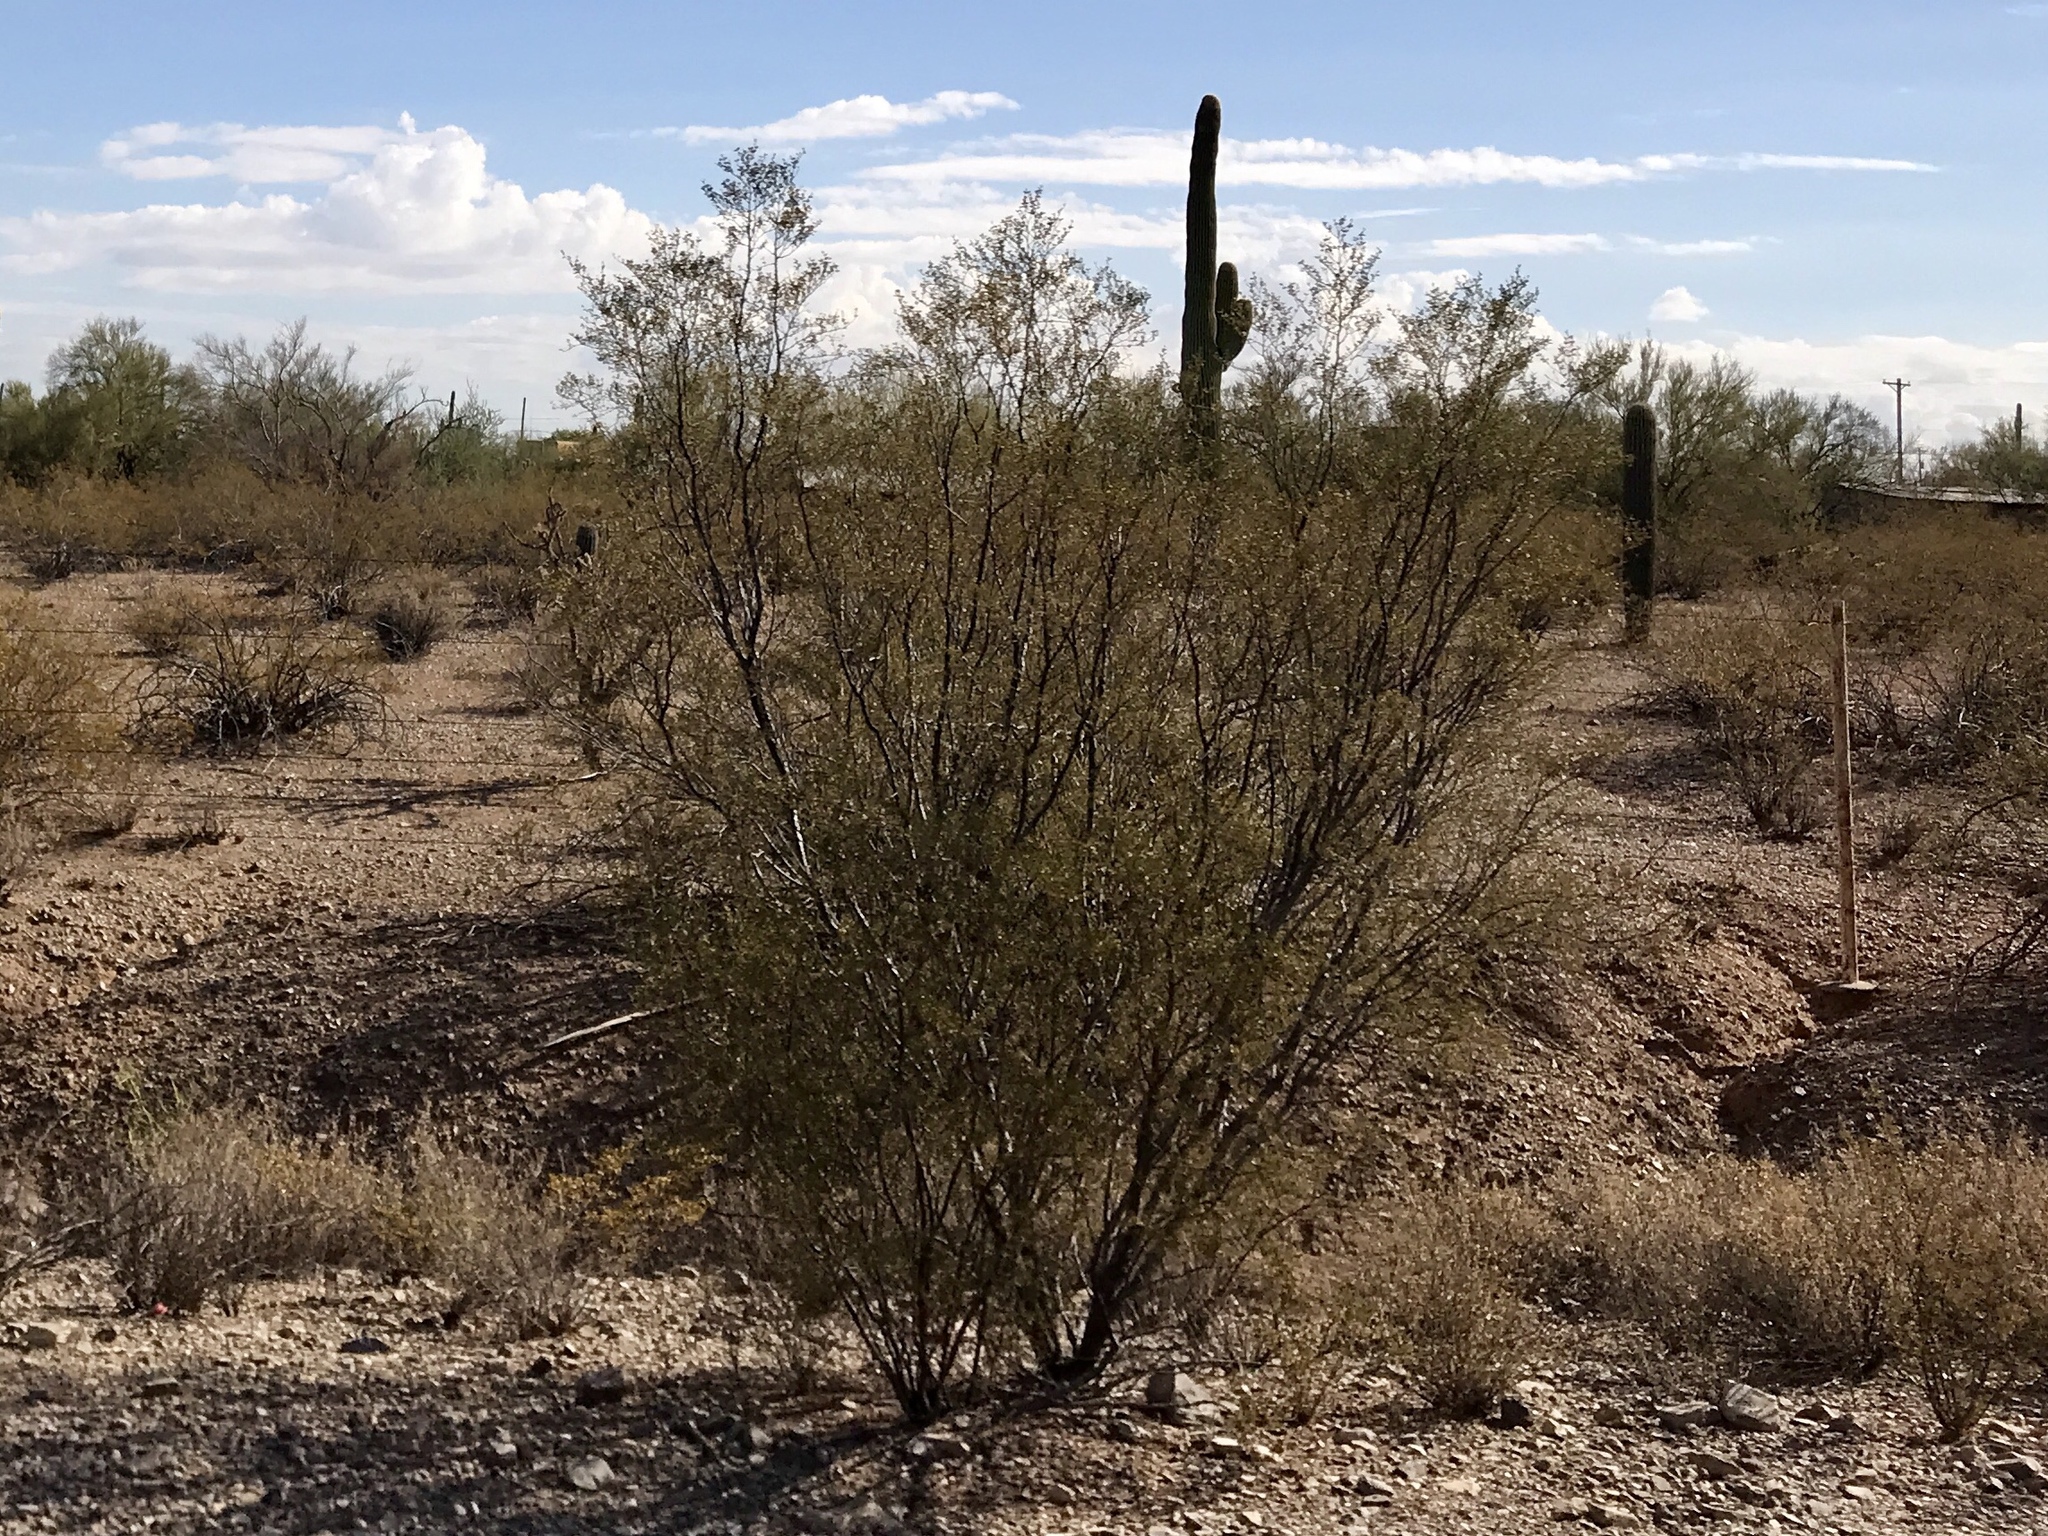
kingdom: Plantae
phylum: Tracheophyta
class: Magnoliopsida
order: Zygophyllales
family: Zygophyllaceae
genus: Larrea
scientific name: Larrea tridentata
